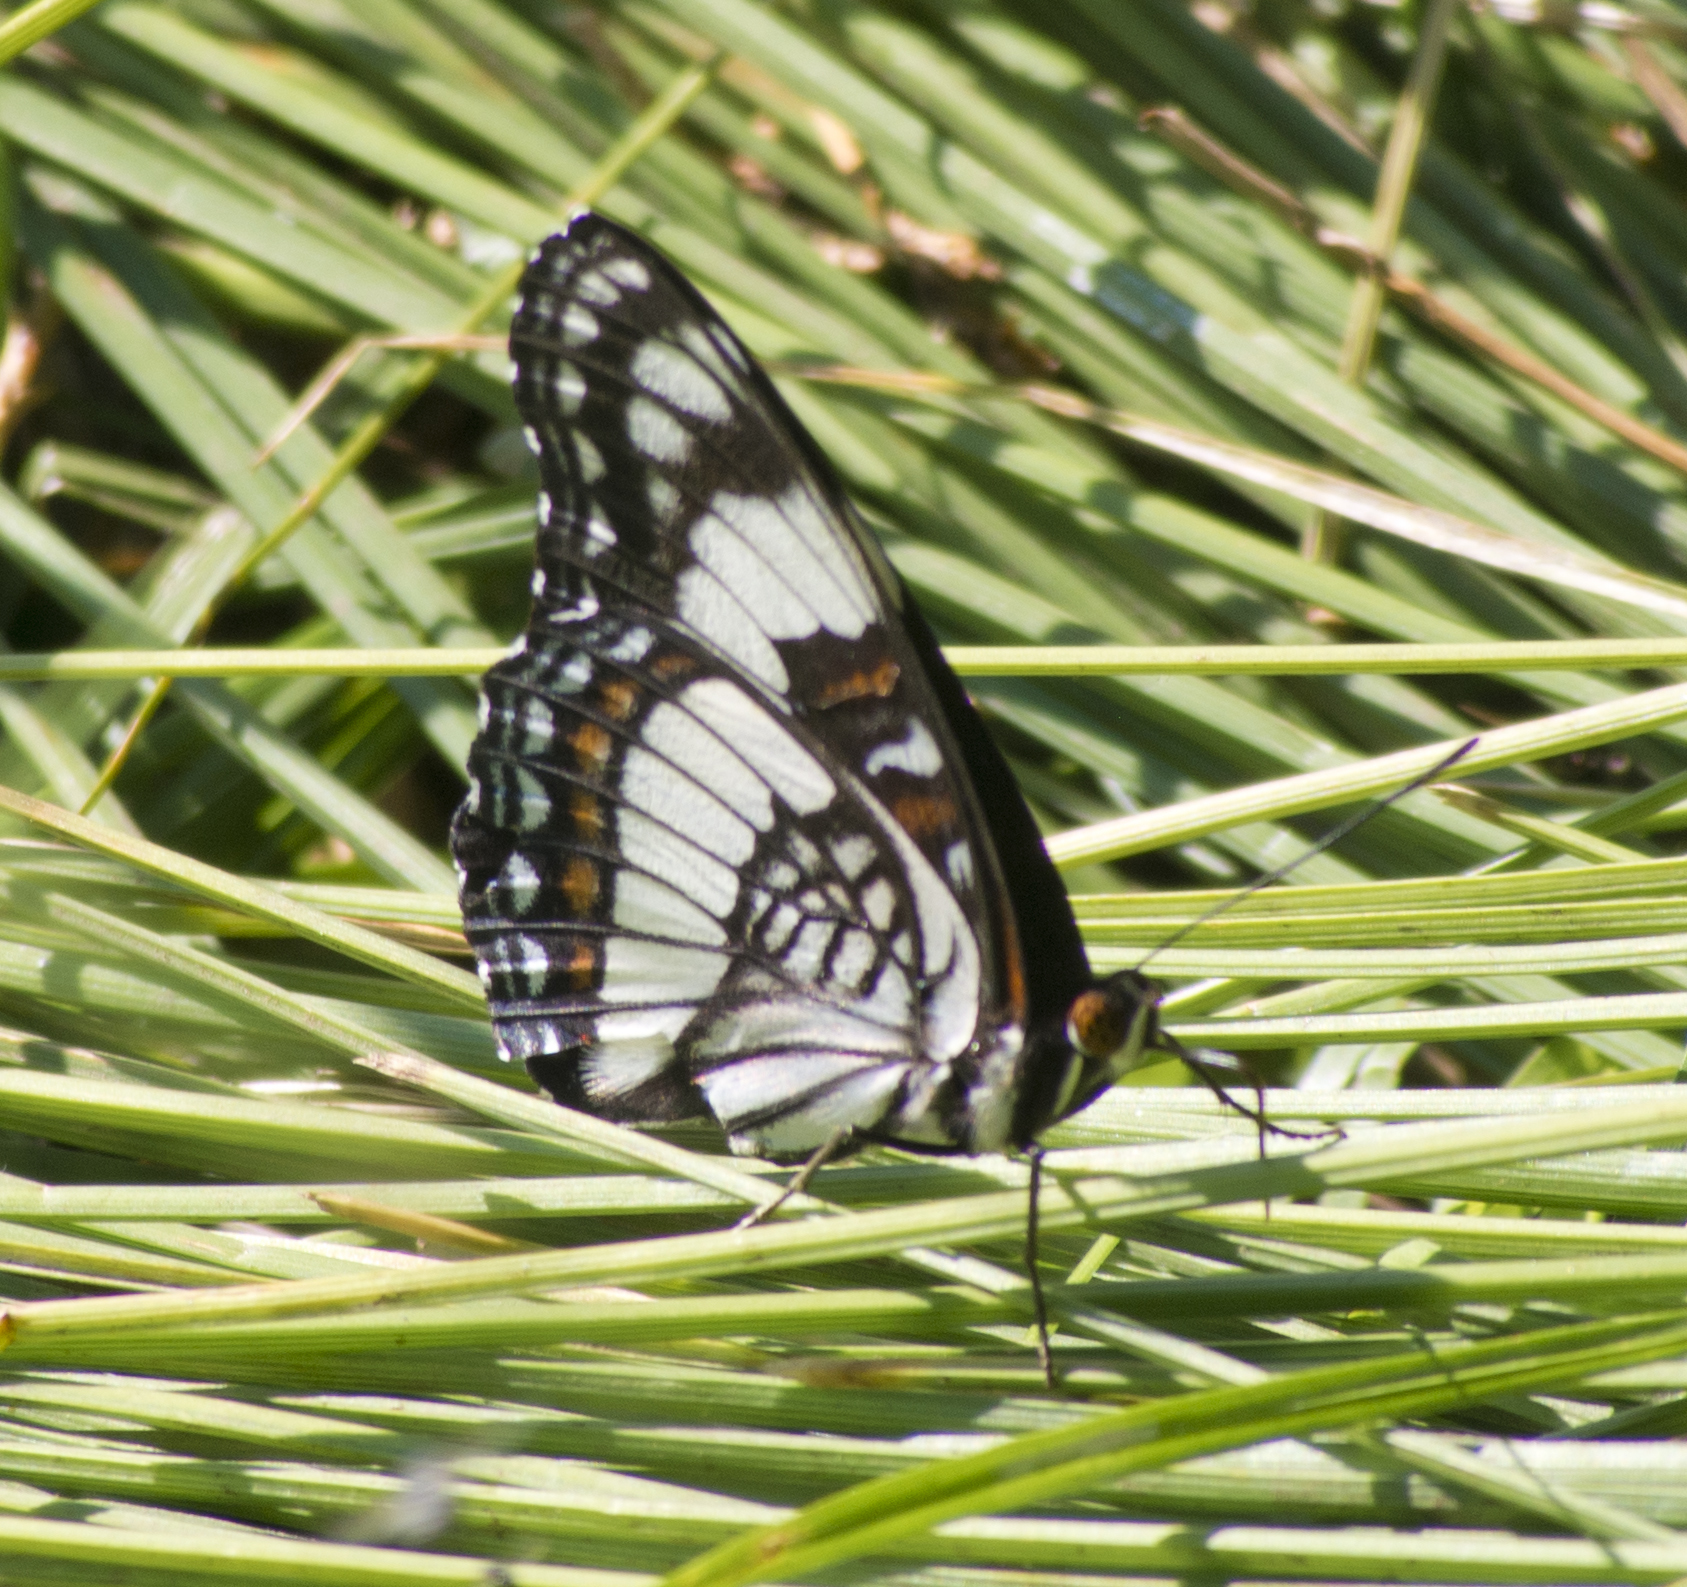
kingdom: Animalia
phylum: Arthropoda
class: Insecta
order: Lepidoptera
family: Nymphalidae
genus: Limenitis
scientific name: Limenitis weidemeyerii
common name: Weidemeyer's admiral
